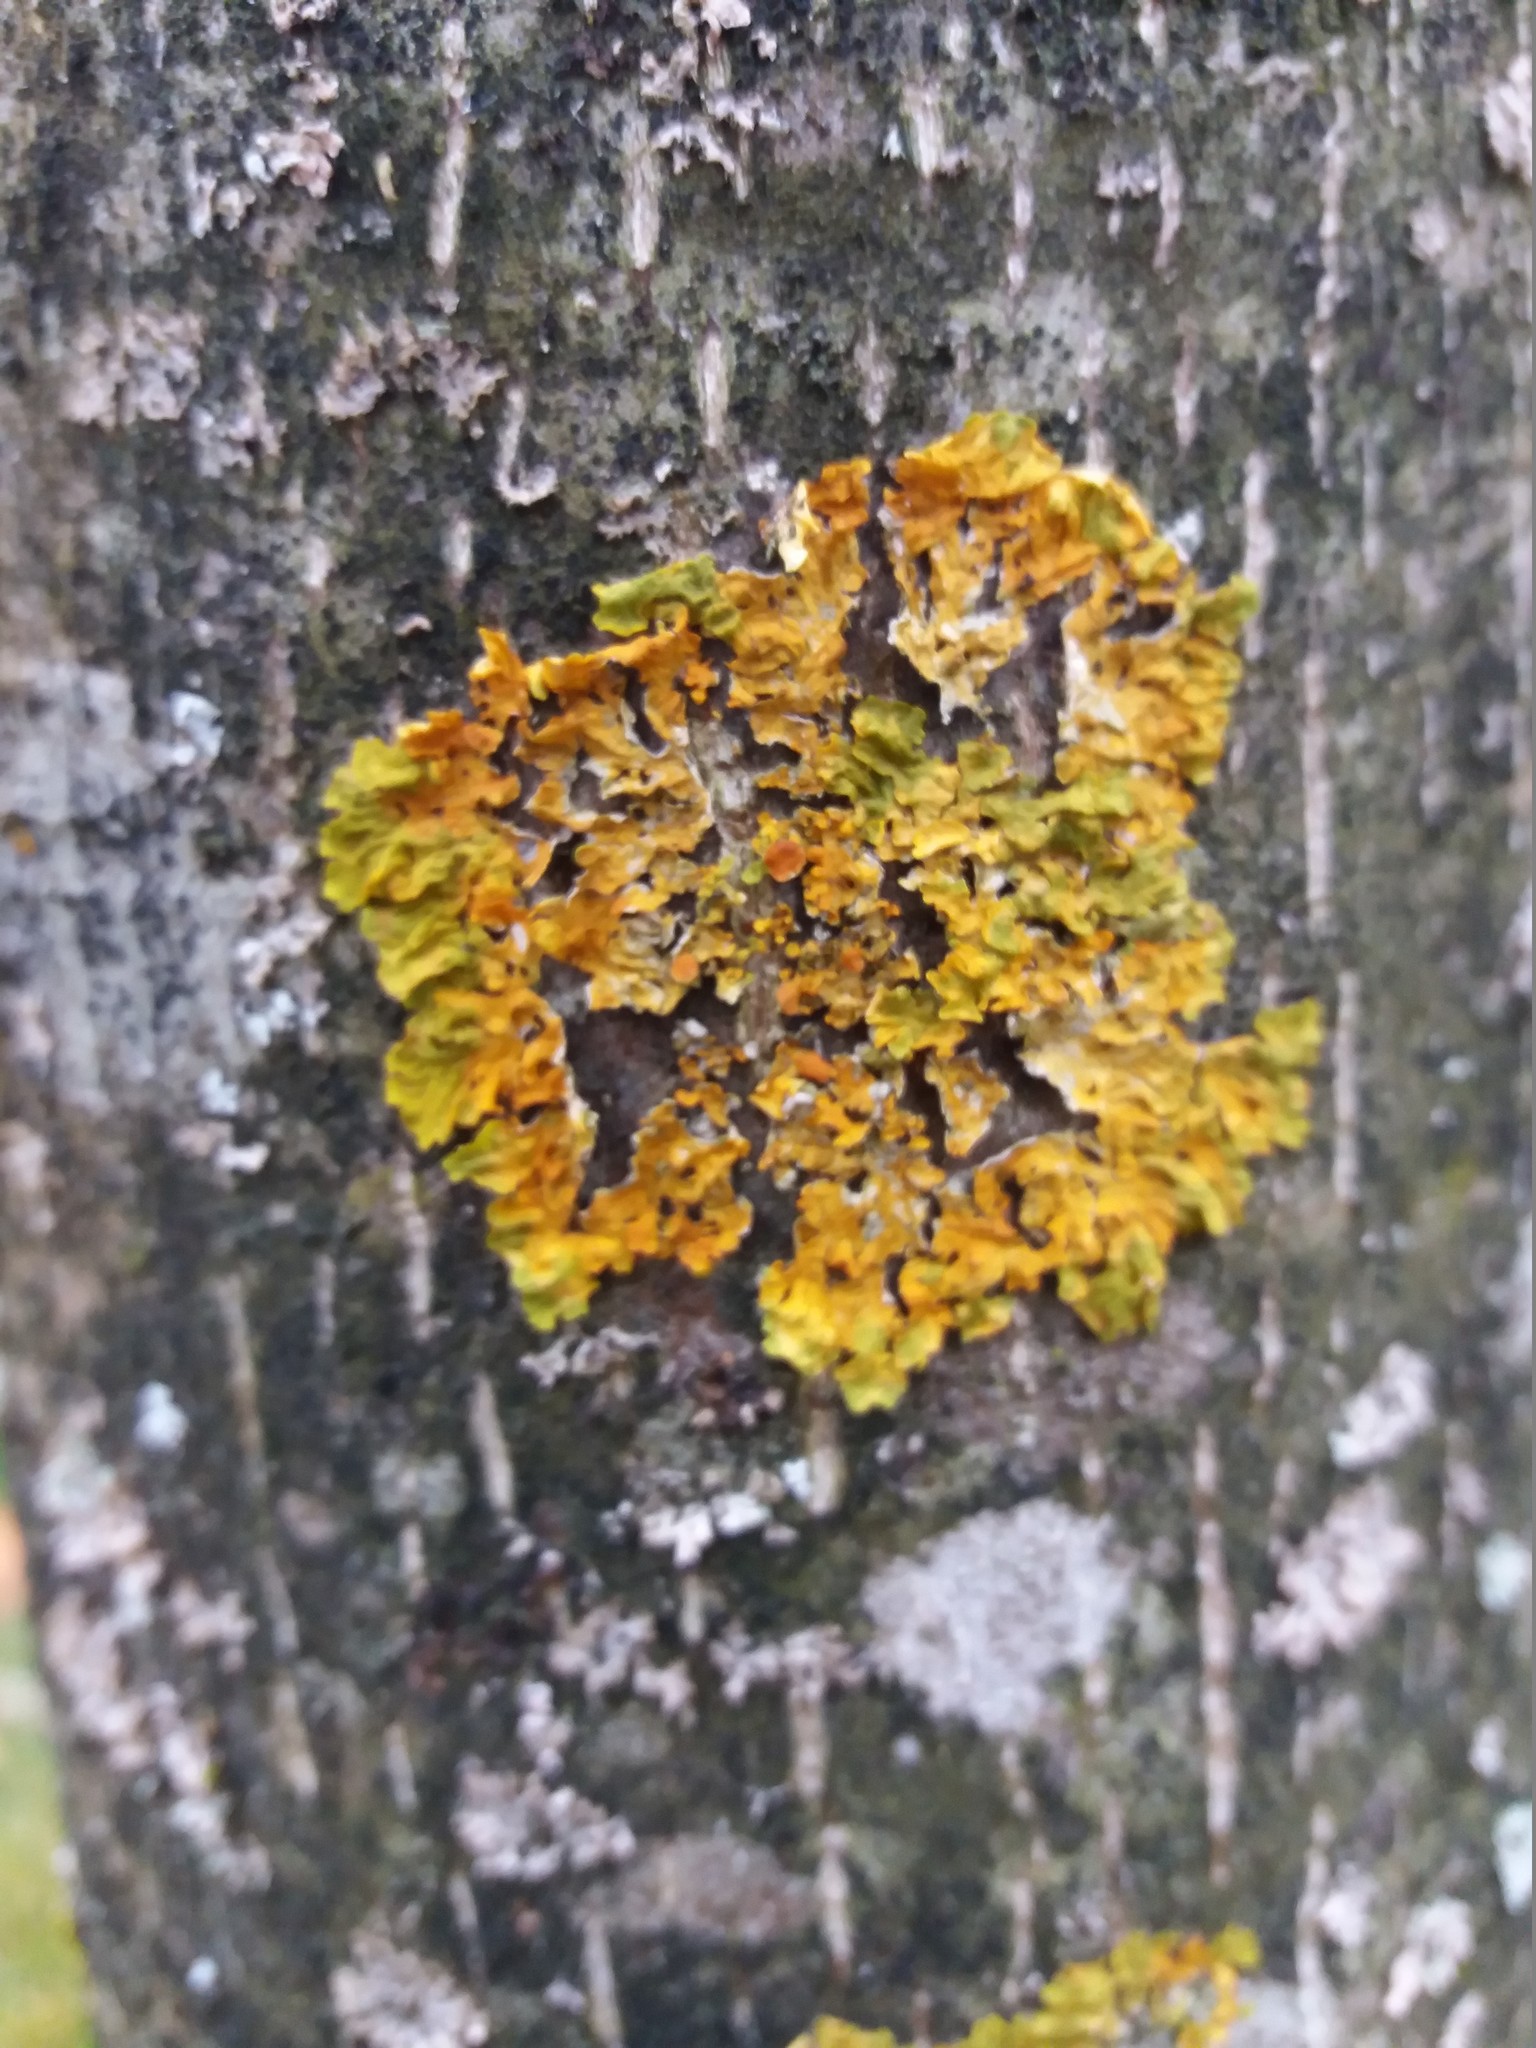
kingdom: Fungi
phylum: Ascomycota
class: Lecanoromycetes
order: Teloschistales
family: Teloschistaceae
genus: Xanthoria
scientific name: Xanthoria parietina
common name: Common orange lichen
